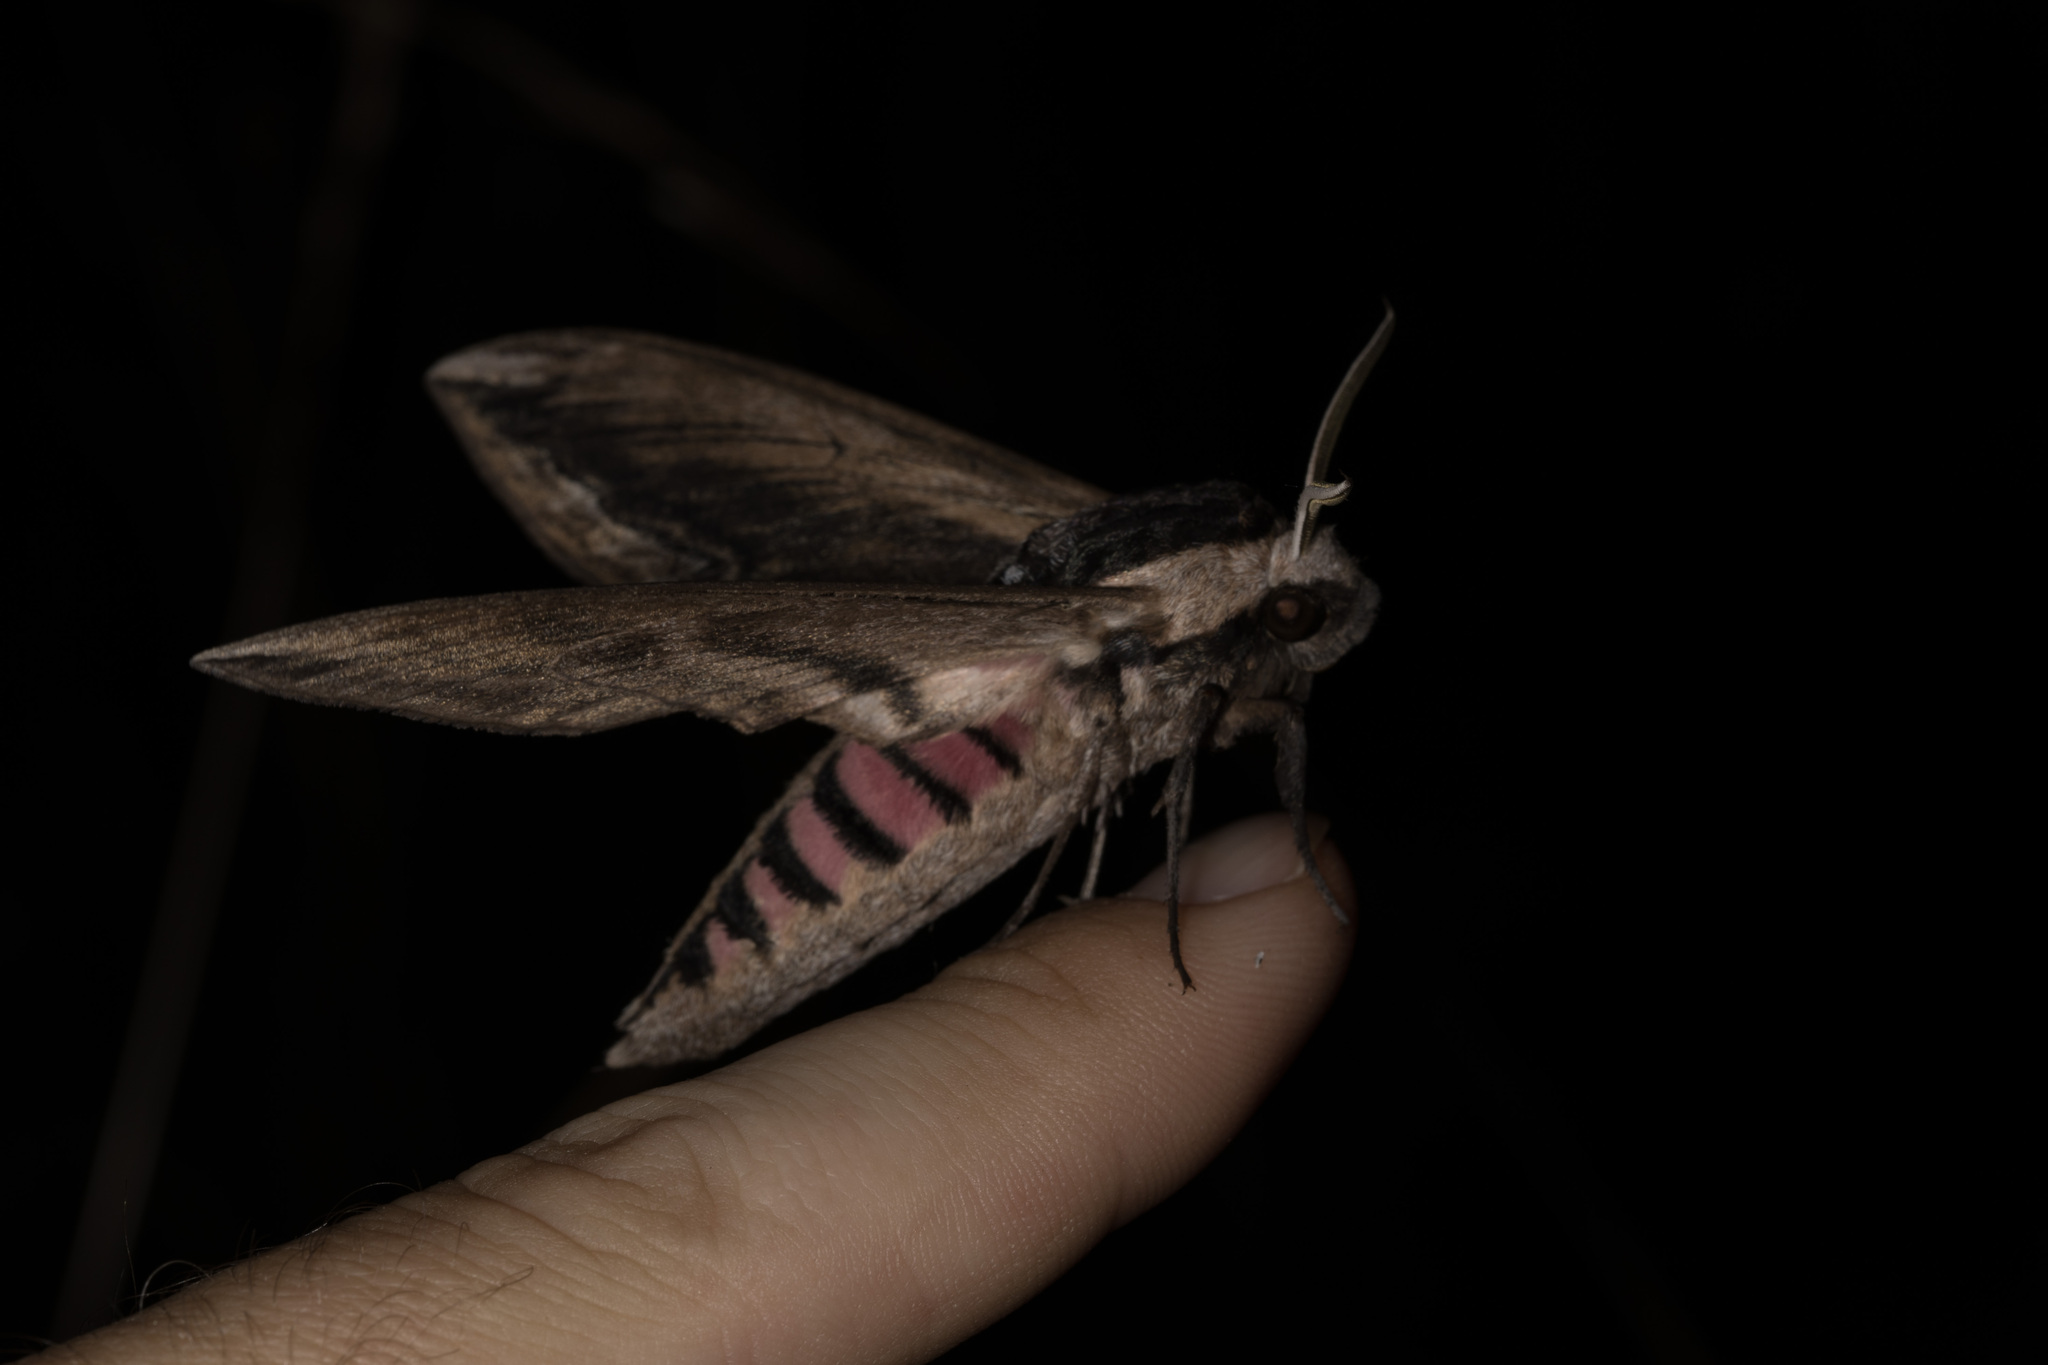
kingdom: Animalia
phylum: Arthropoda
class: Insecta
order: Lepidoptera
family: Sphingidae
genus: Sphinx
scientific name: Sphinx ligustri
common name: Privet hawk-moth
